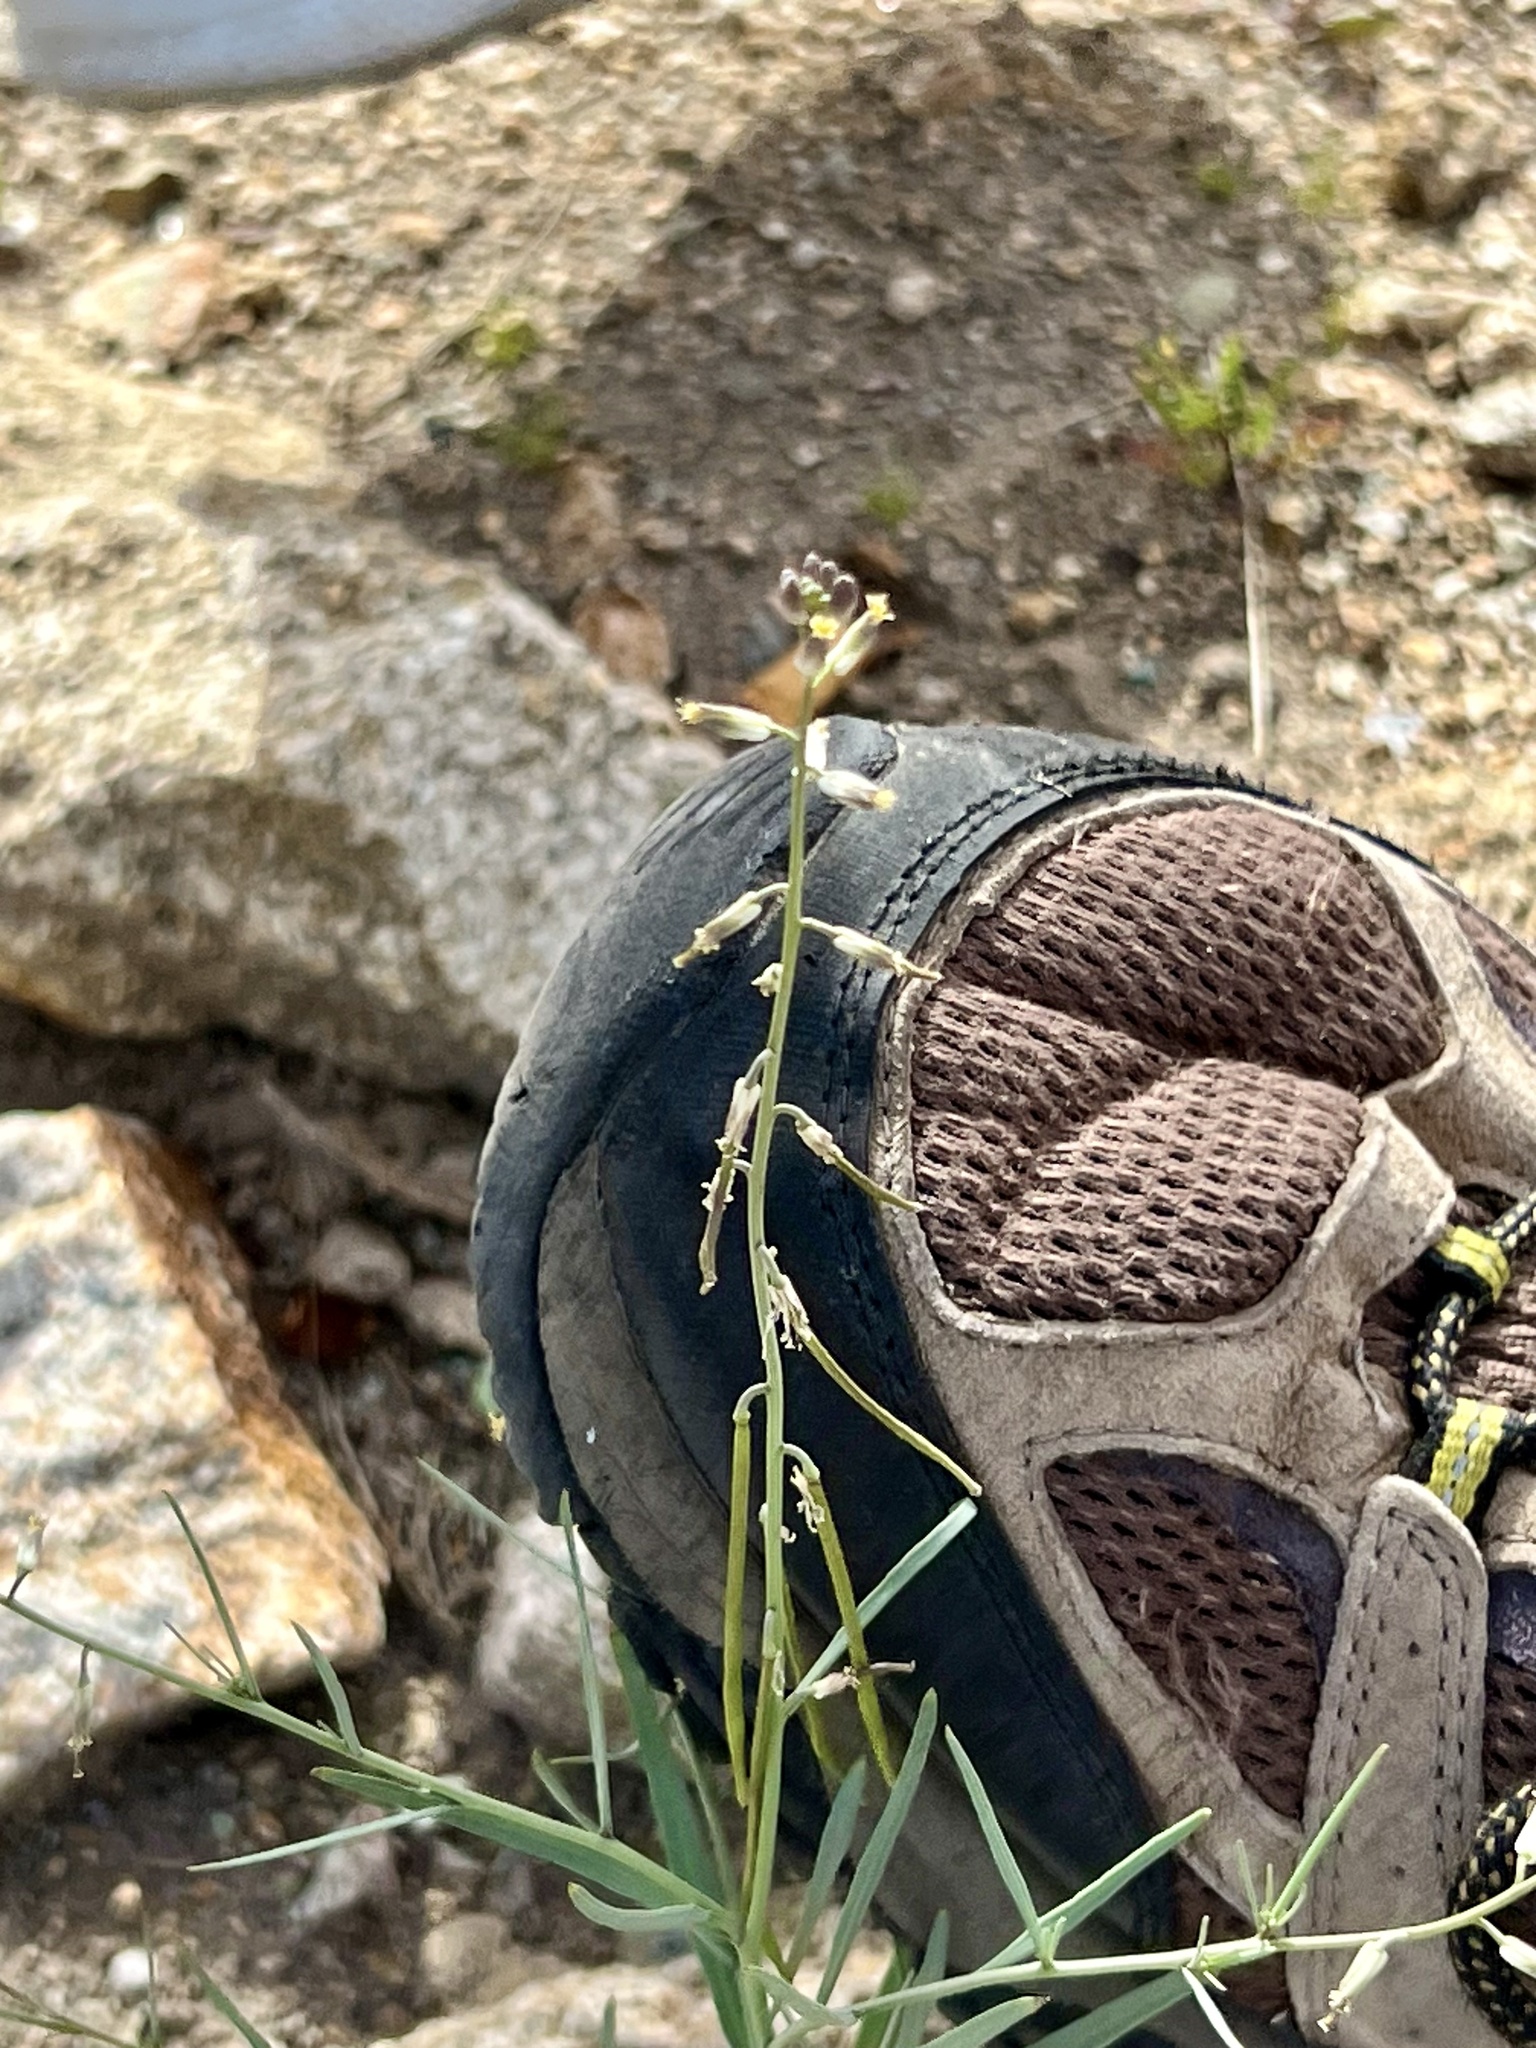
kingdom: Plantae
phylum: Tracheophyta
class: Magnoliopsida
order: Brassicales
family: Brassicaceae
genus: Streptanthus
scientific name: Streptanthus longirostris
